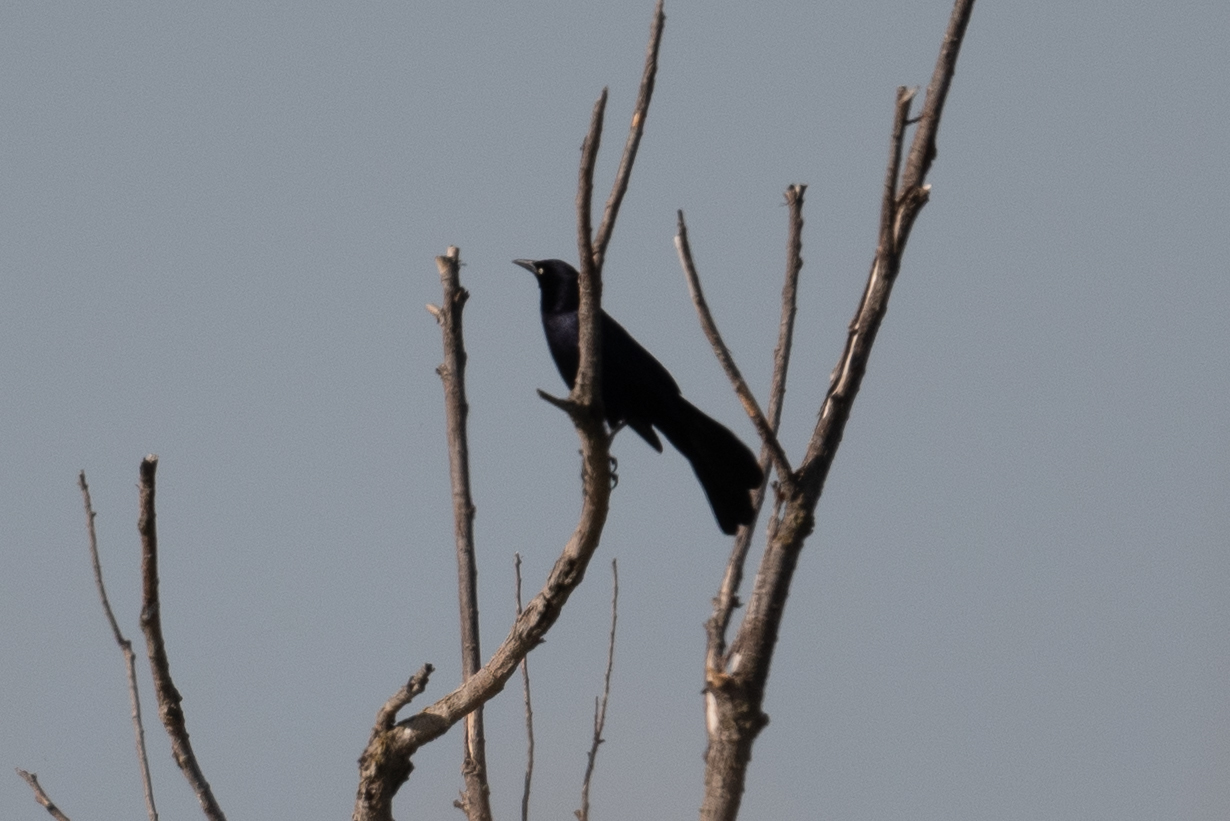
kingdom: Animalia
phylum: Chordata
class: Aves
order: Passeriformes
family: Icteridae
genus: Quiscalus
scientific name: Quiscalus mexicanus
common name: Great-tailed grackle
